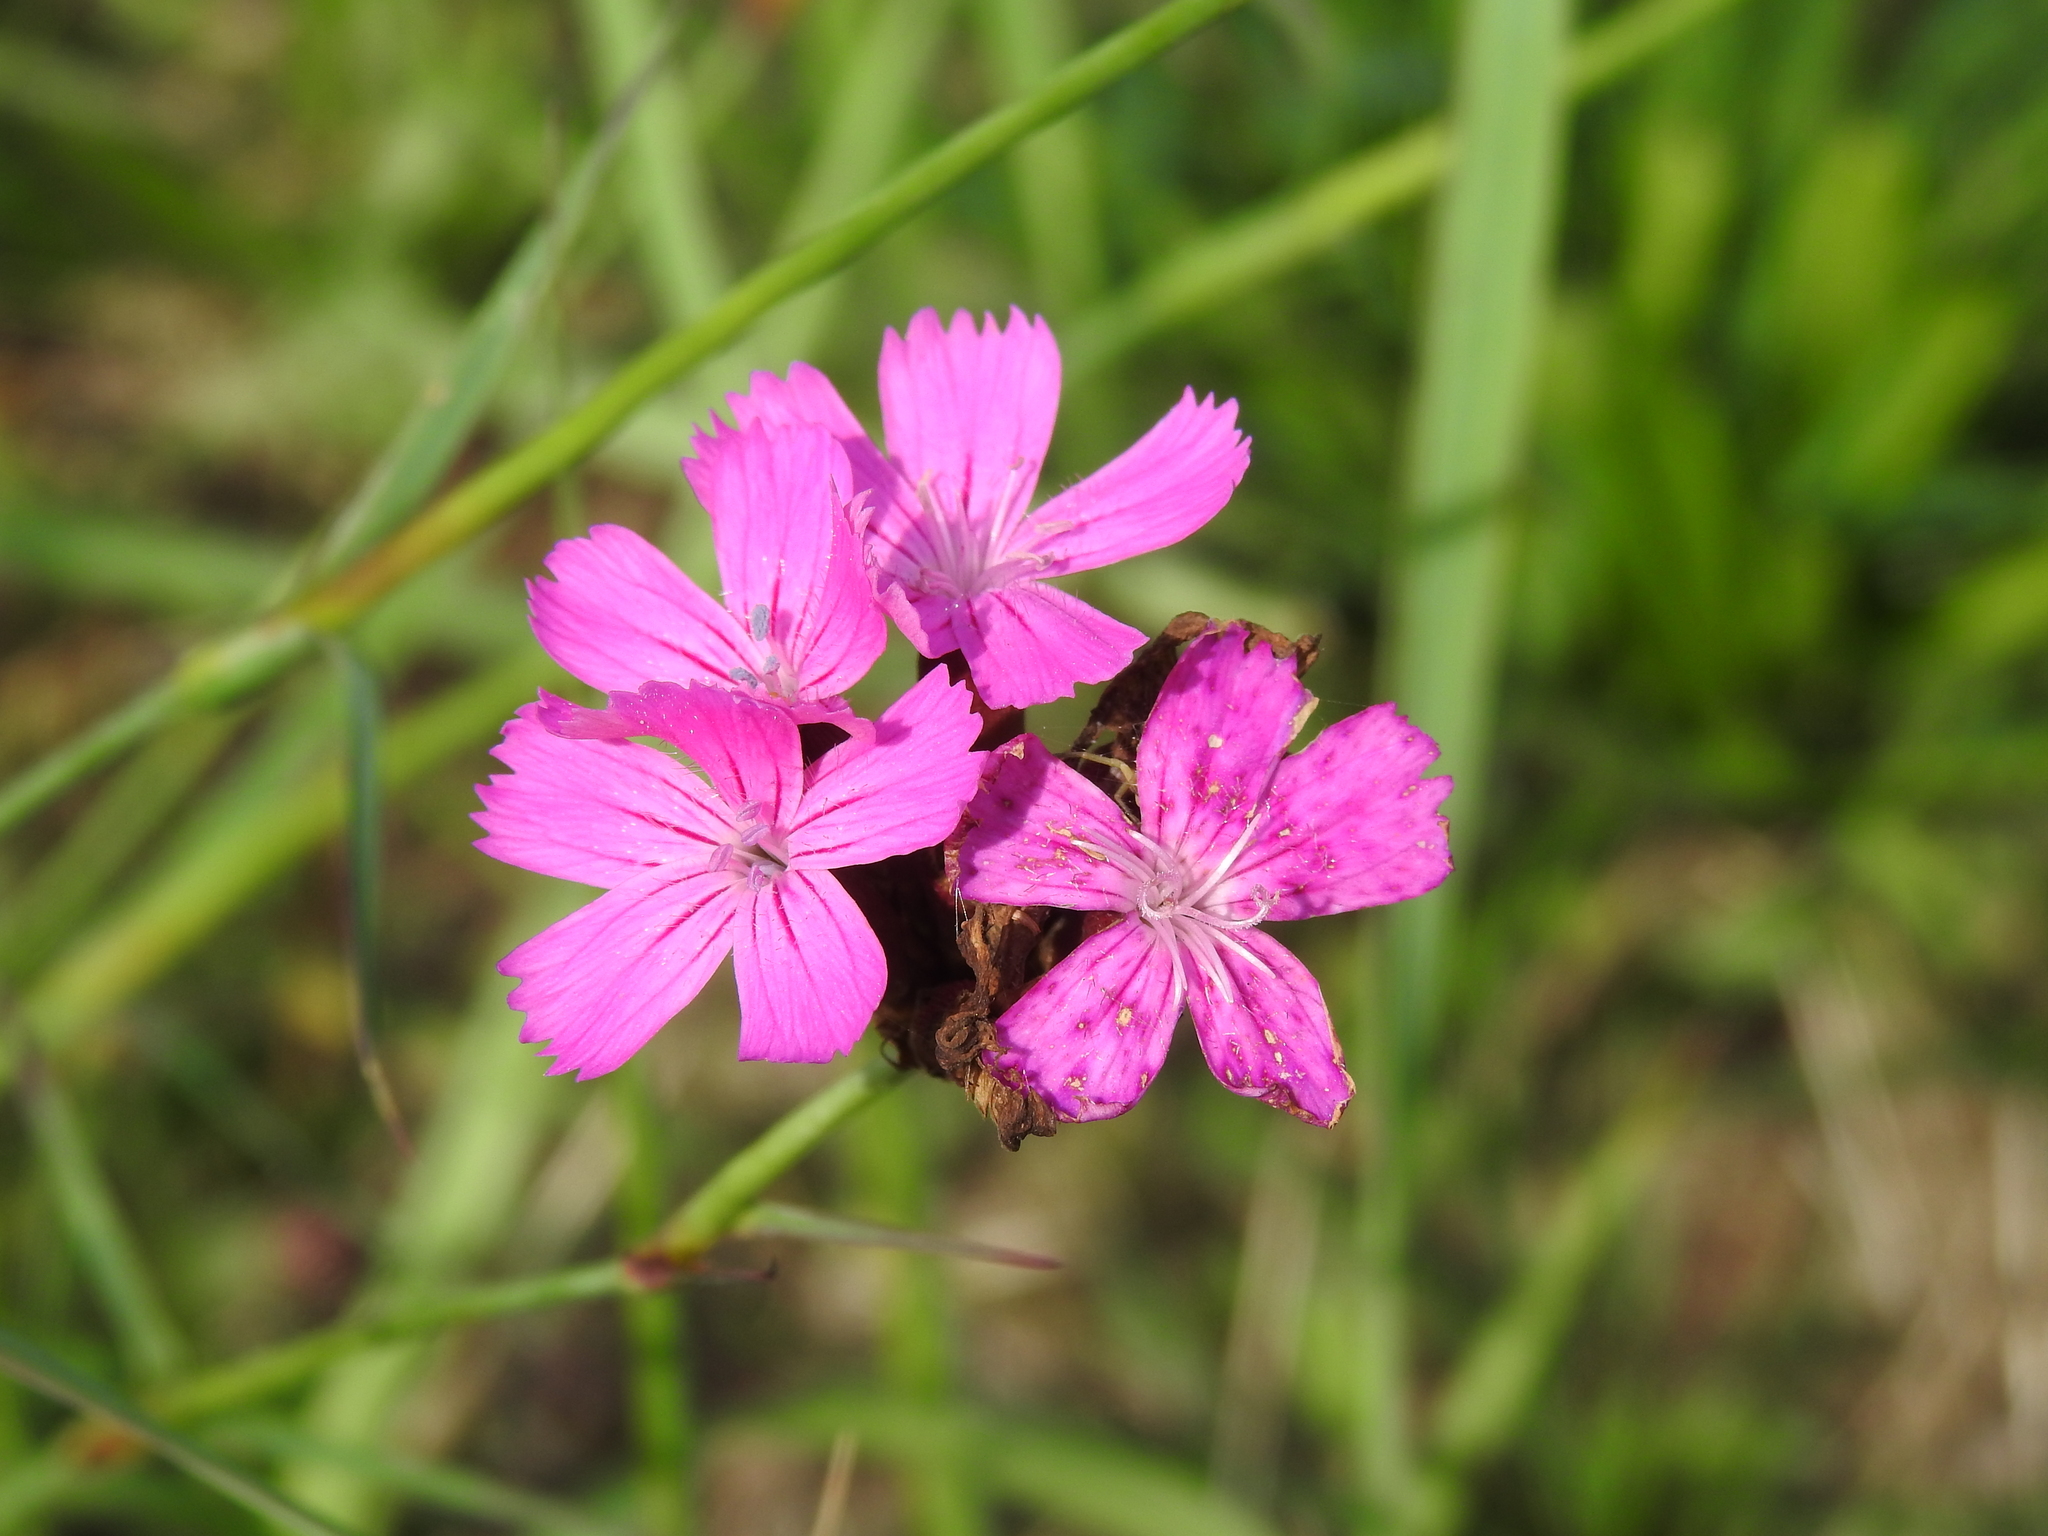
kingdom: Plantae
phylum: Tracheophyta
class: Magnoliopsida
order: Caryophyllales
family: Caryophyllaceae
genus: Dianthus
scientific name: Dianthus carthusianorum
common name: Carthusian pink
